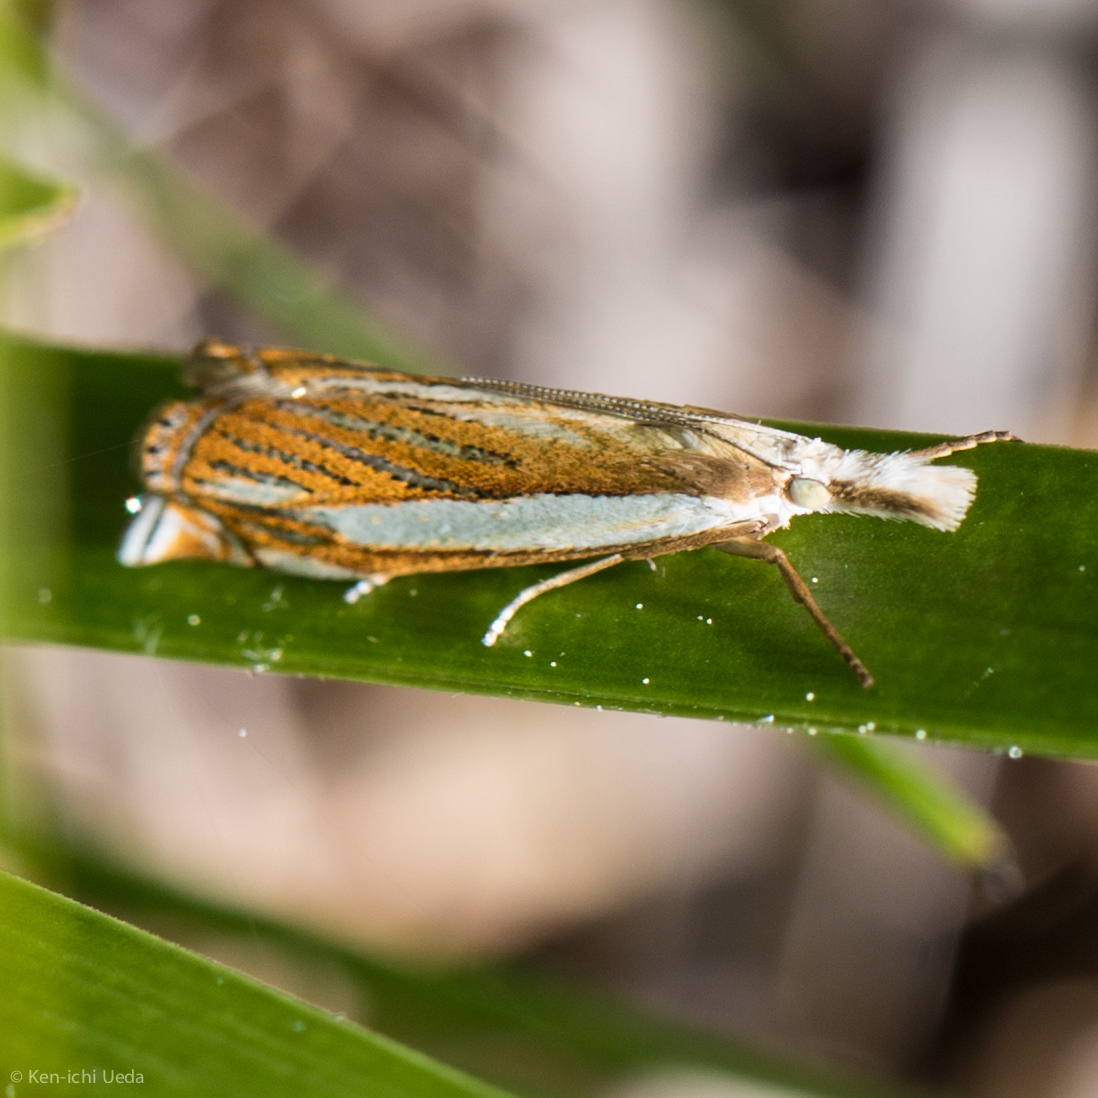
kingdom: Animalia
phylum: Arthropoda
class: Insecta
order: Lepidoptera
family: Crambidae
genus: Crambus
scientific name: Crambus pascuella
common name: Inlaid grass-veneer
